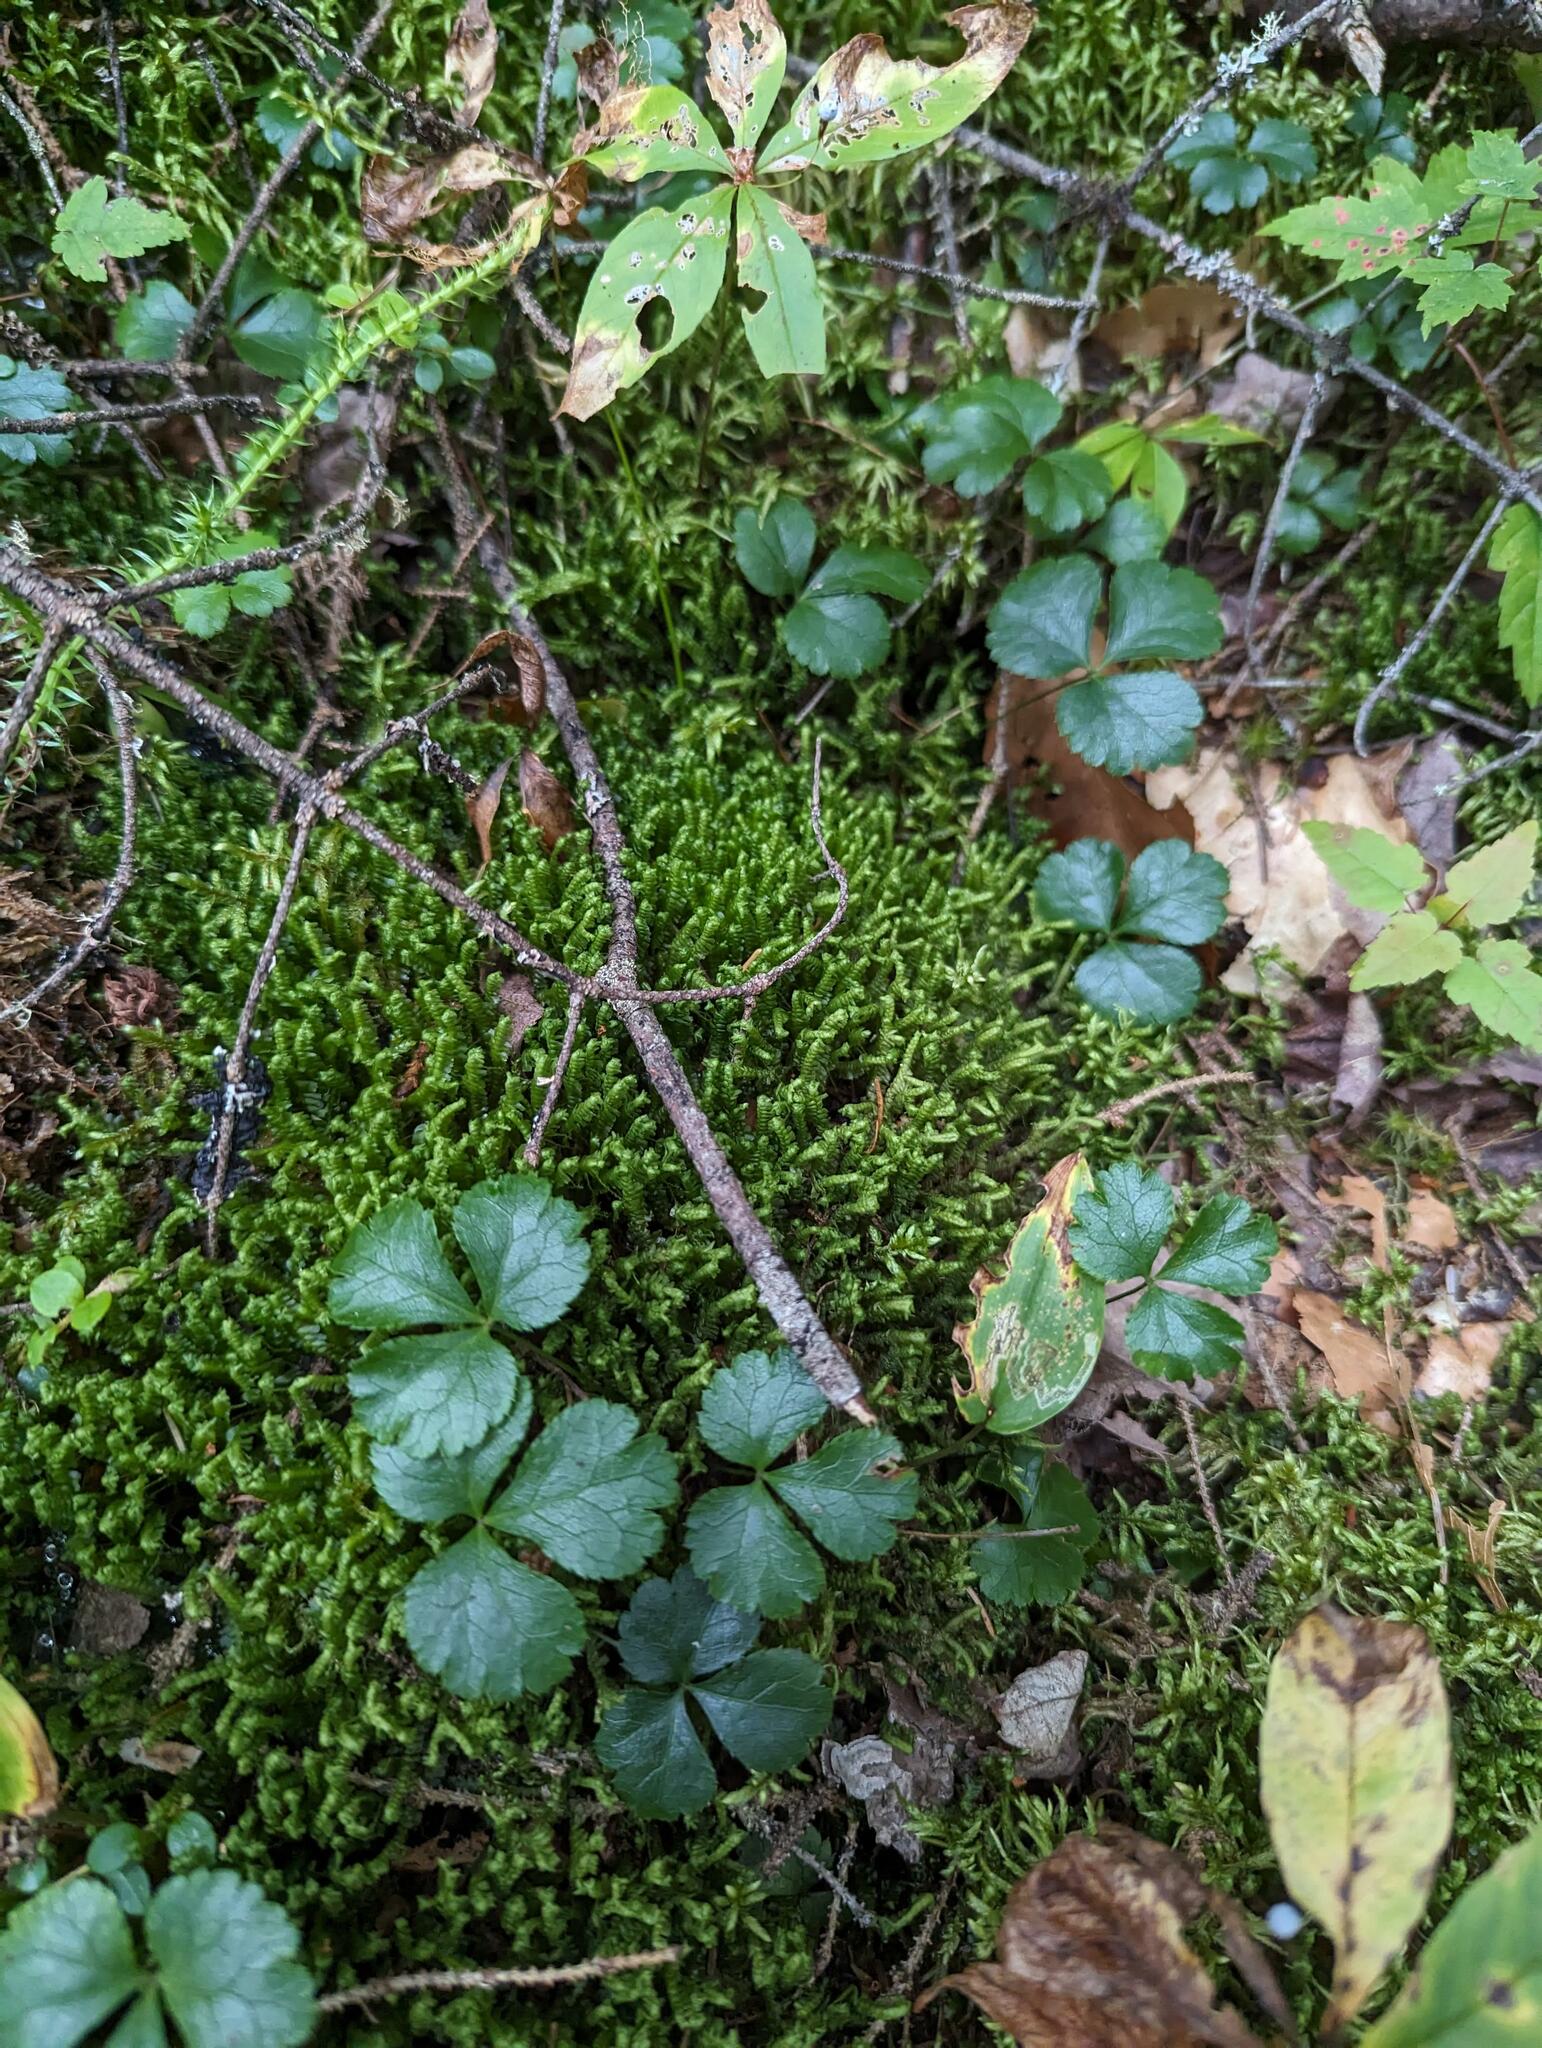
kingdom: Plantae
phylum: Marchantiophyta
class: Jungermanniopsida
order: Jungermanniales
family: Lepidoziaceae
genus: Bazzania
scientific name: Bazzania trilobata
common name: Three-lobed whipwort
